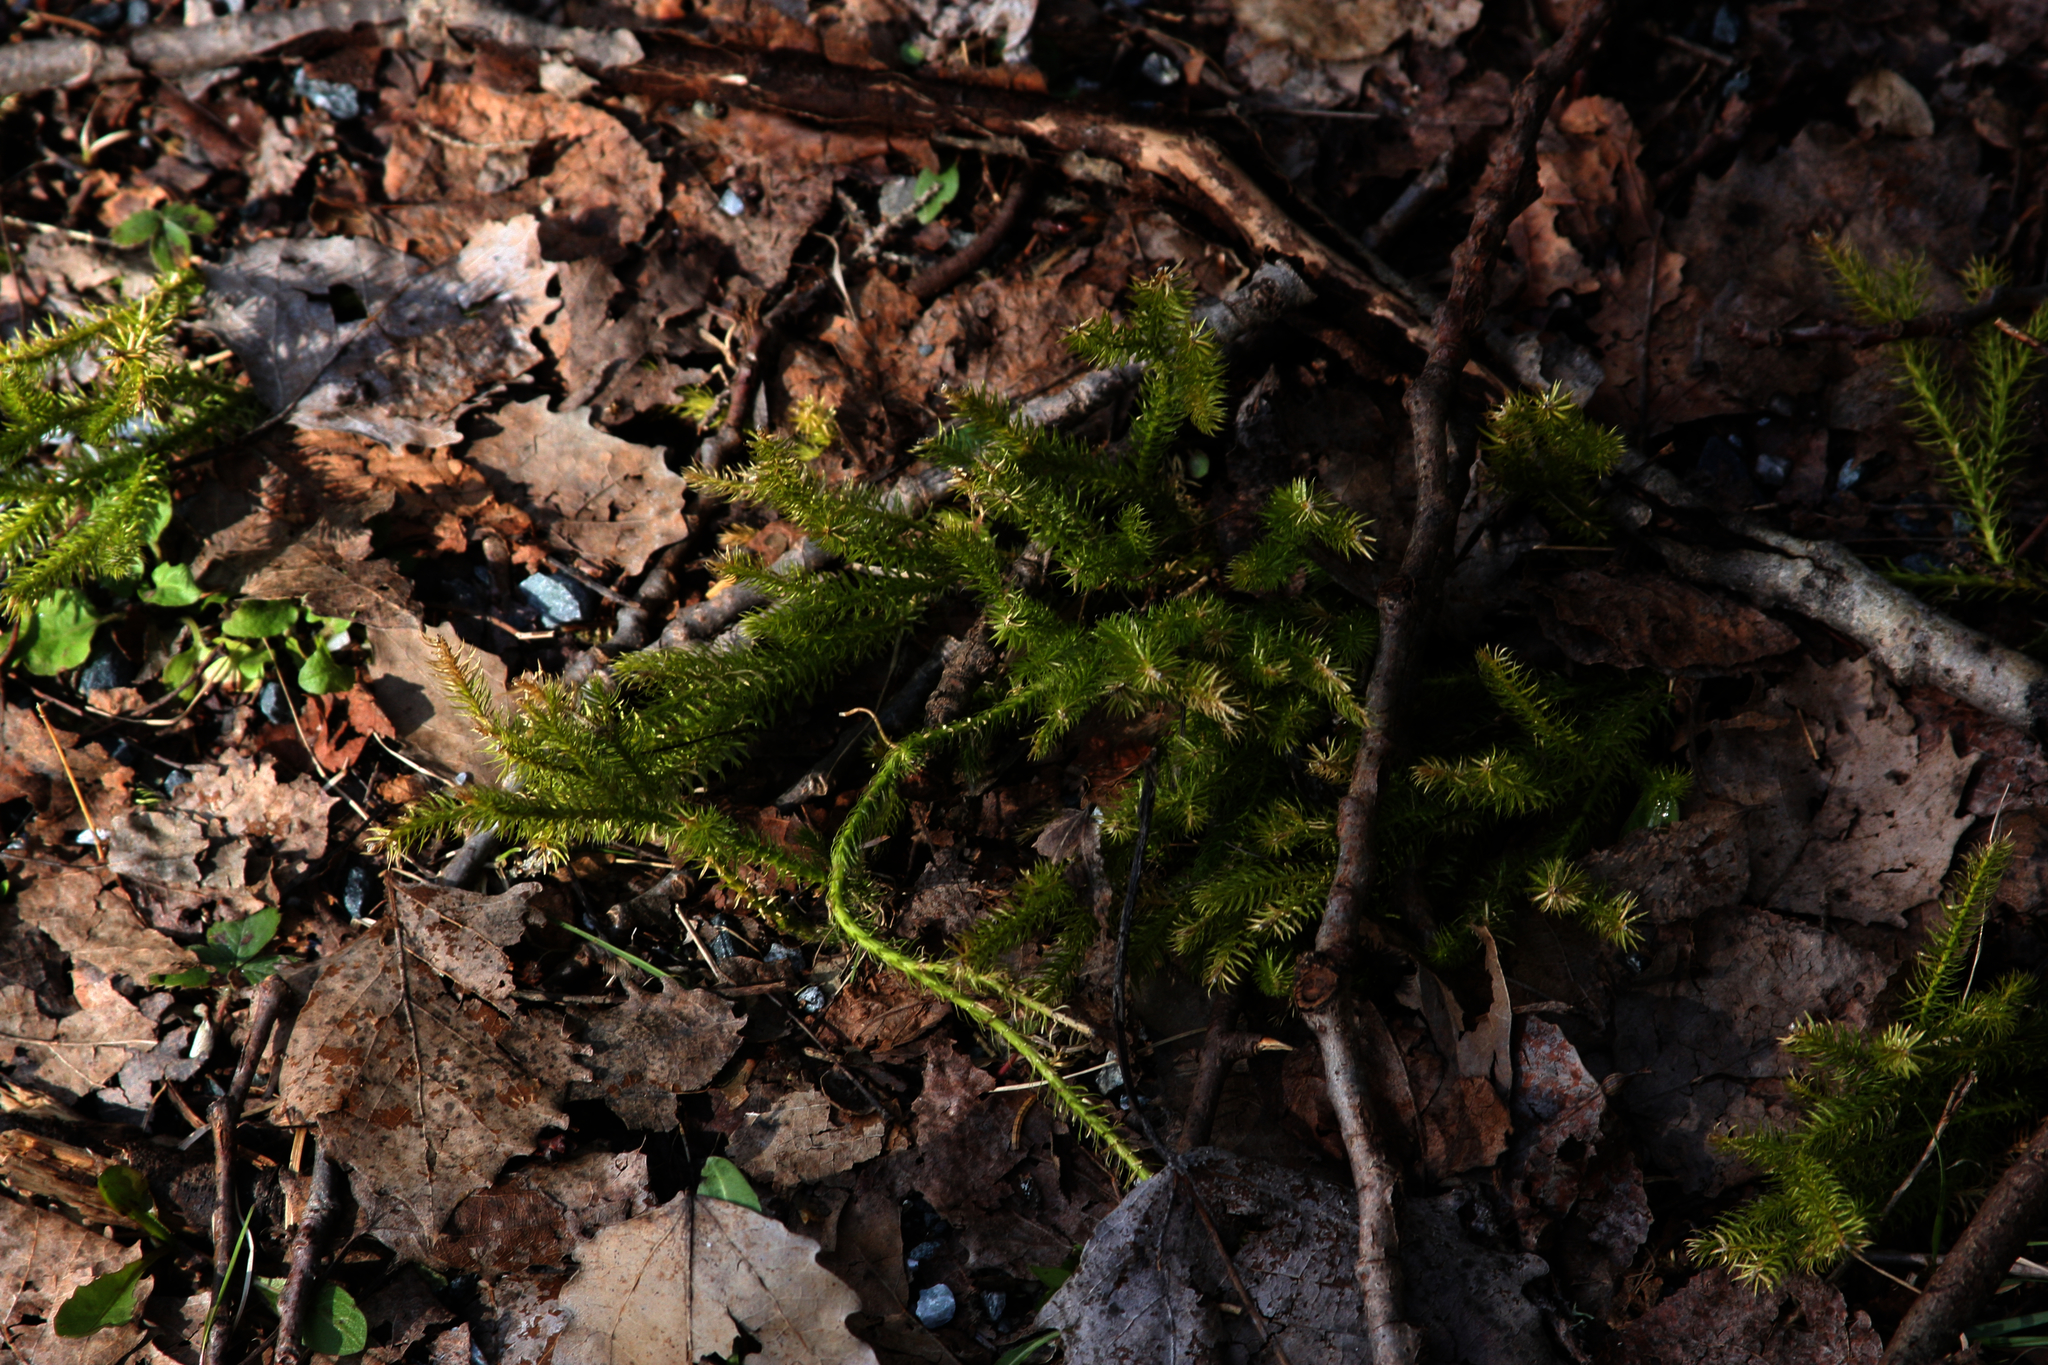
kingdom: Plantae
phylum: Tracheophyta
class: Lycopodiopsida
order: Lycopodiales
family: Lycopodiaceae
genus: Lycopodium
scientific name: Lycopodium clavatum
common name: Stag's-horn clubmoss
